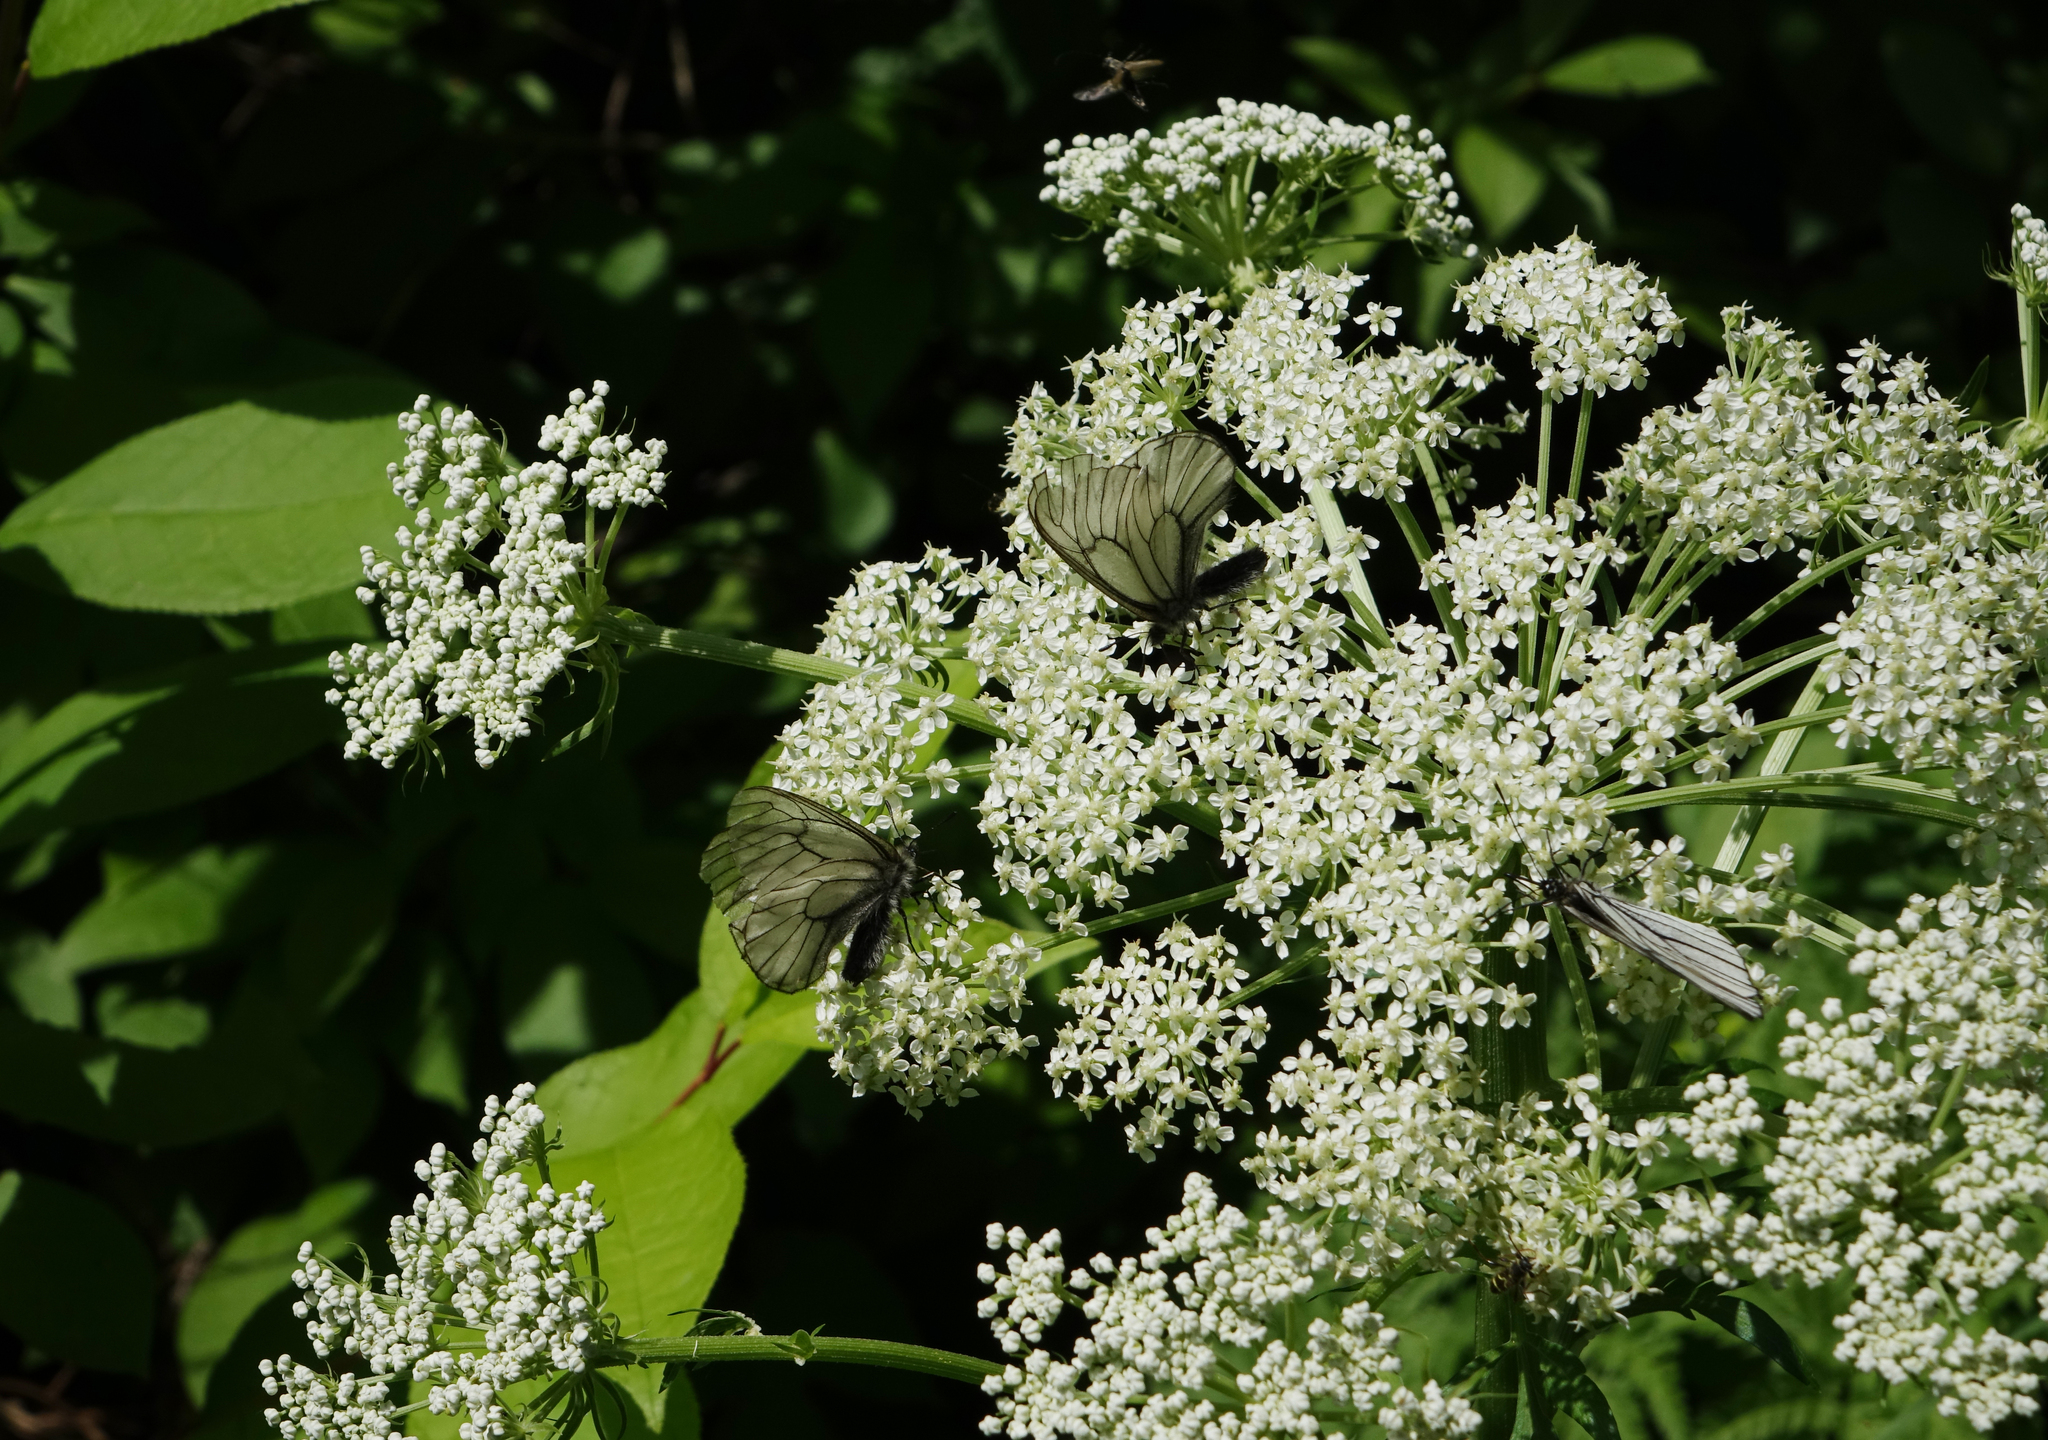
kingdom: Animalia
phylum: Arthropoda
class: Insecta
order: Lepidoptera
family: Papilionidae
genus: Parnassius
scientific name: Parnassius stubbendorfii
